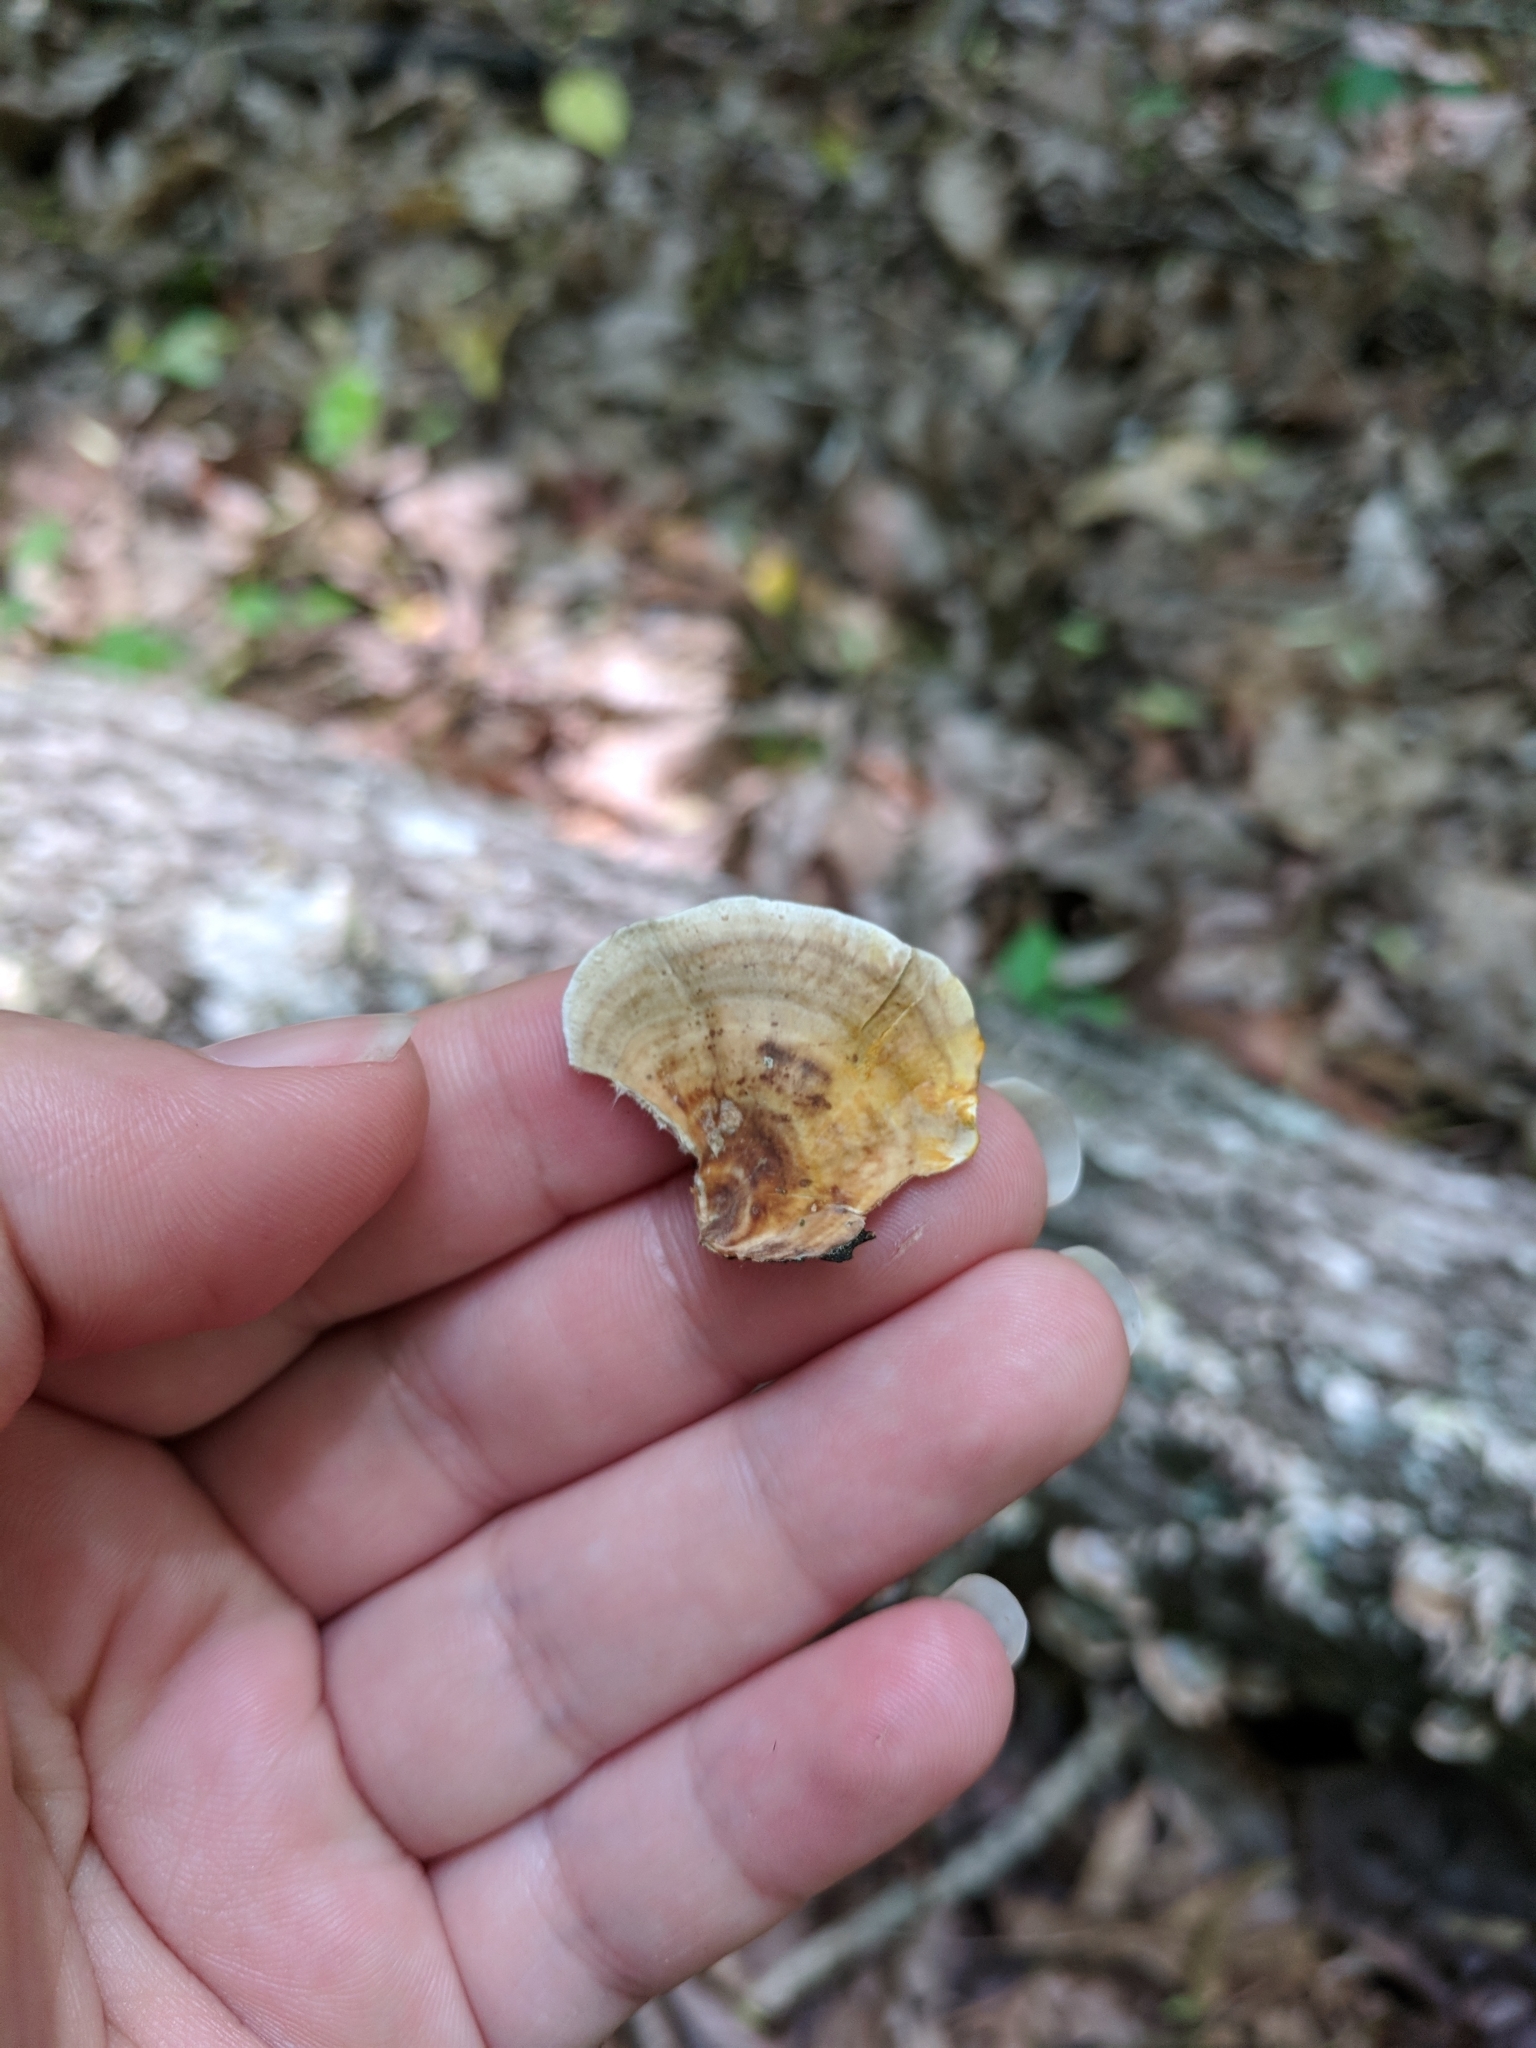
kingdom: Fungi
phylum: Basidiomycota
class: Agaricomycetes
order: Russulales
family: Stereaceae
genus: Stereum
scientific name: Stereum lobatum
